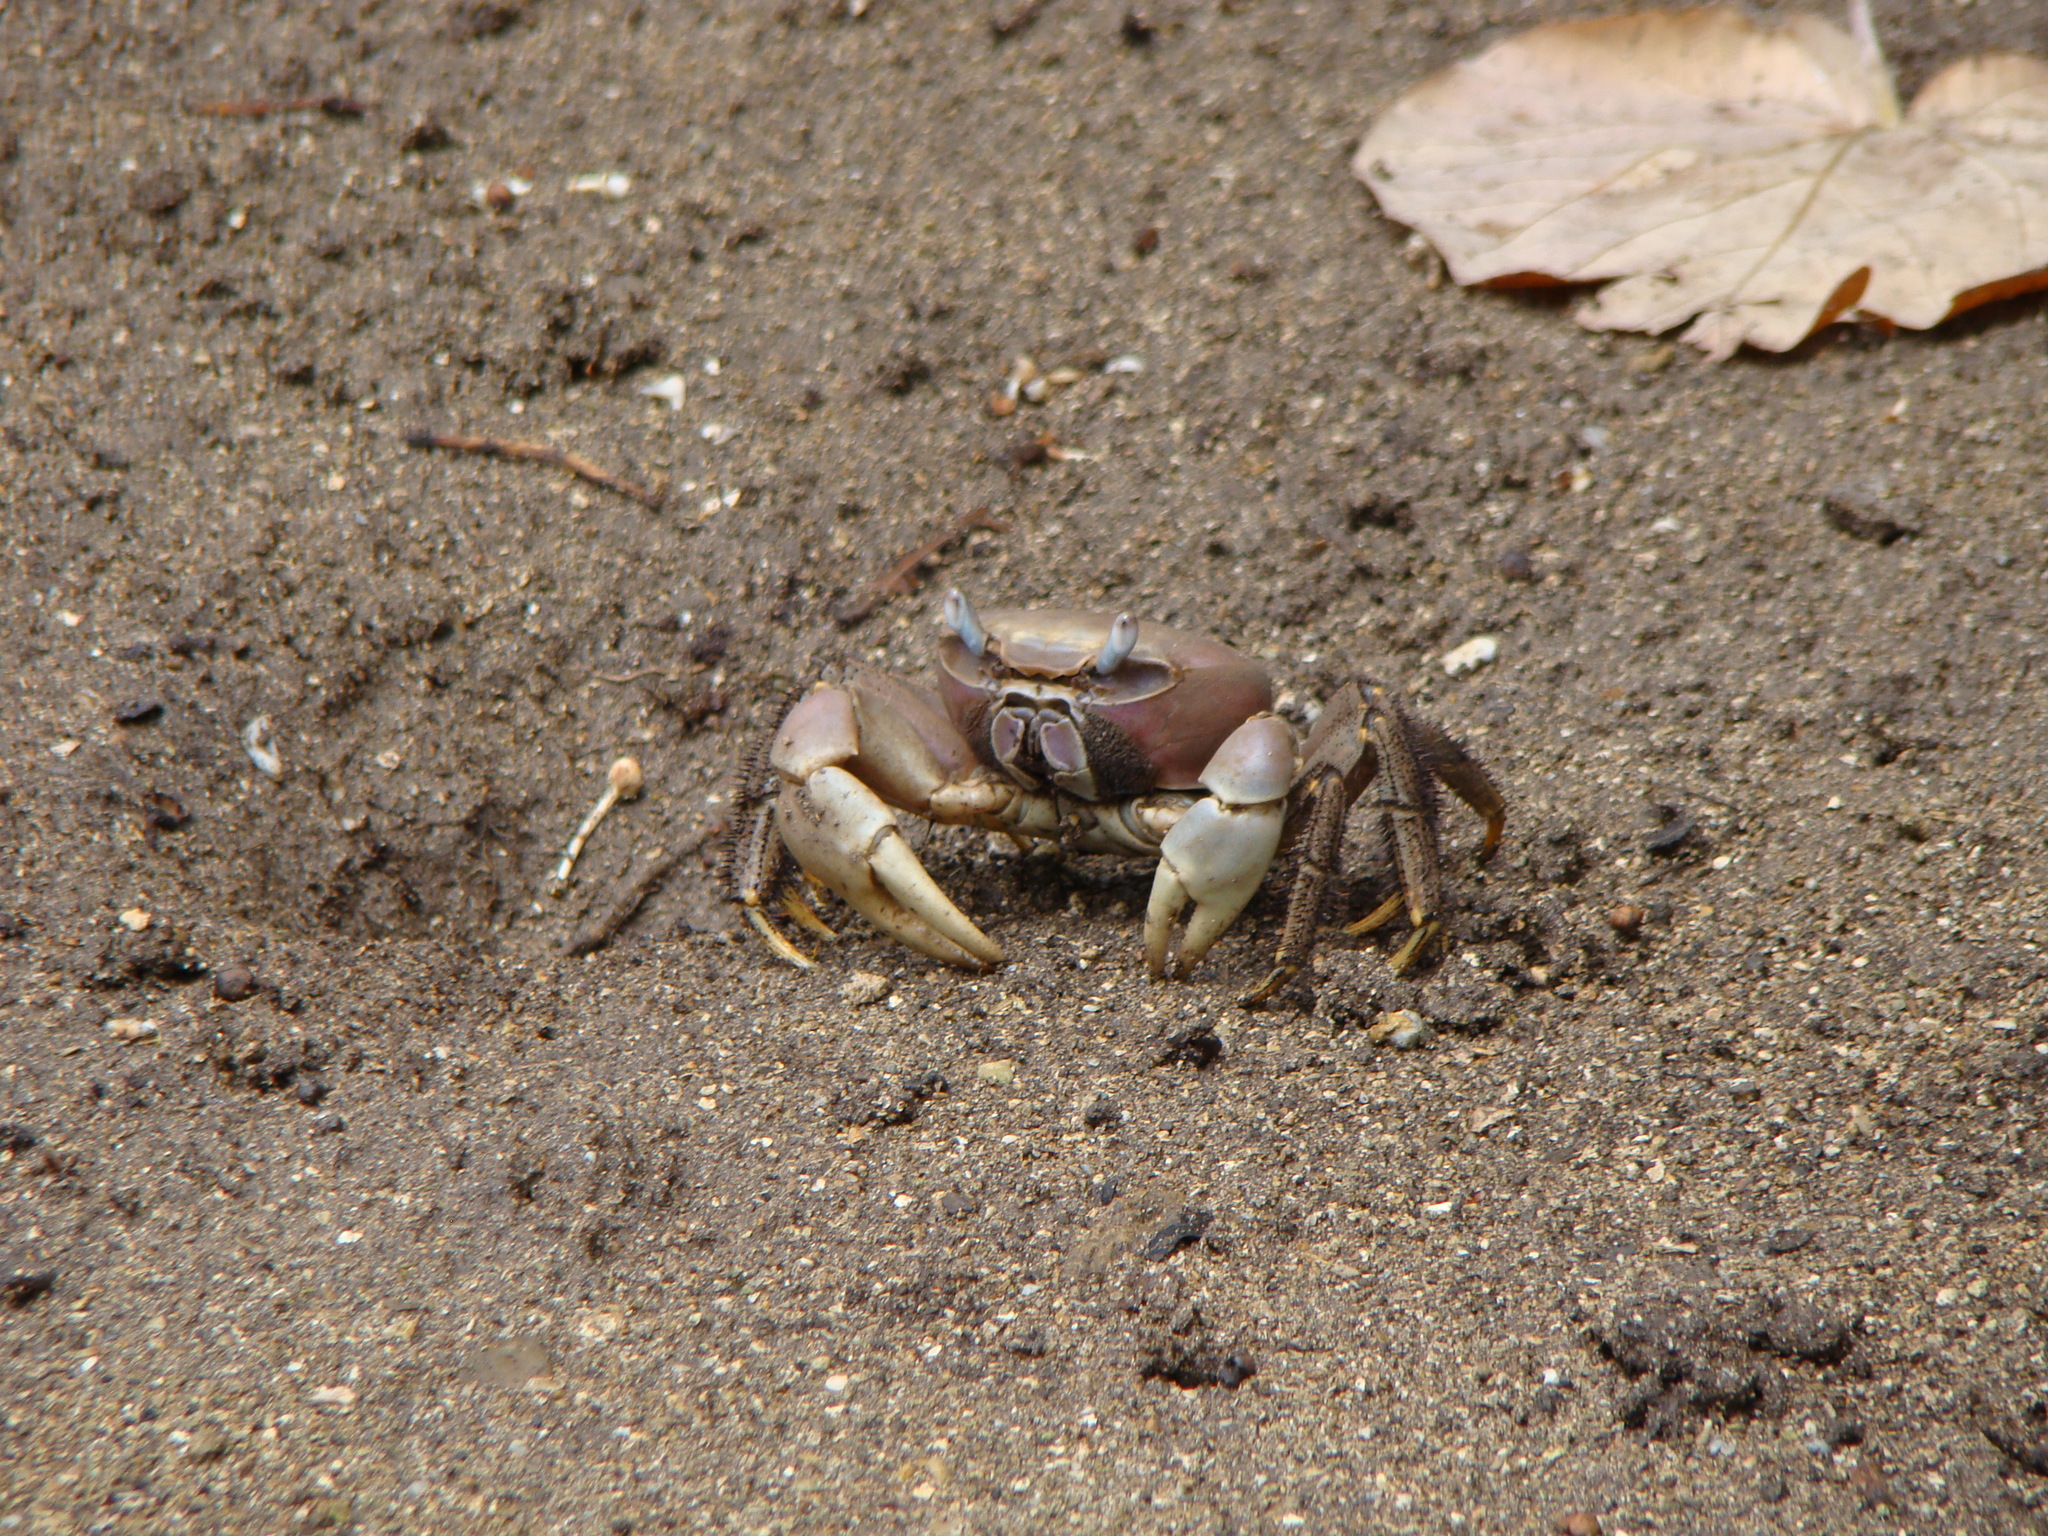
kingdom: Animalia
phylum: Arthropoda
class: Malacostraca
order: Decapoda
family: Gecarcinidae
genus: Cardisoma
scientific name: Cardisoma carnifex
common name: Brown land crab
